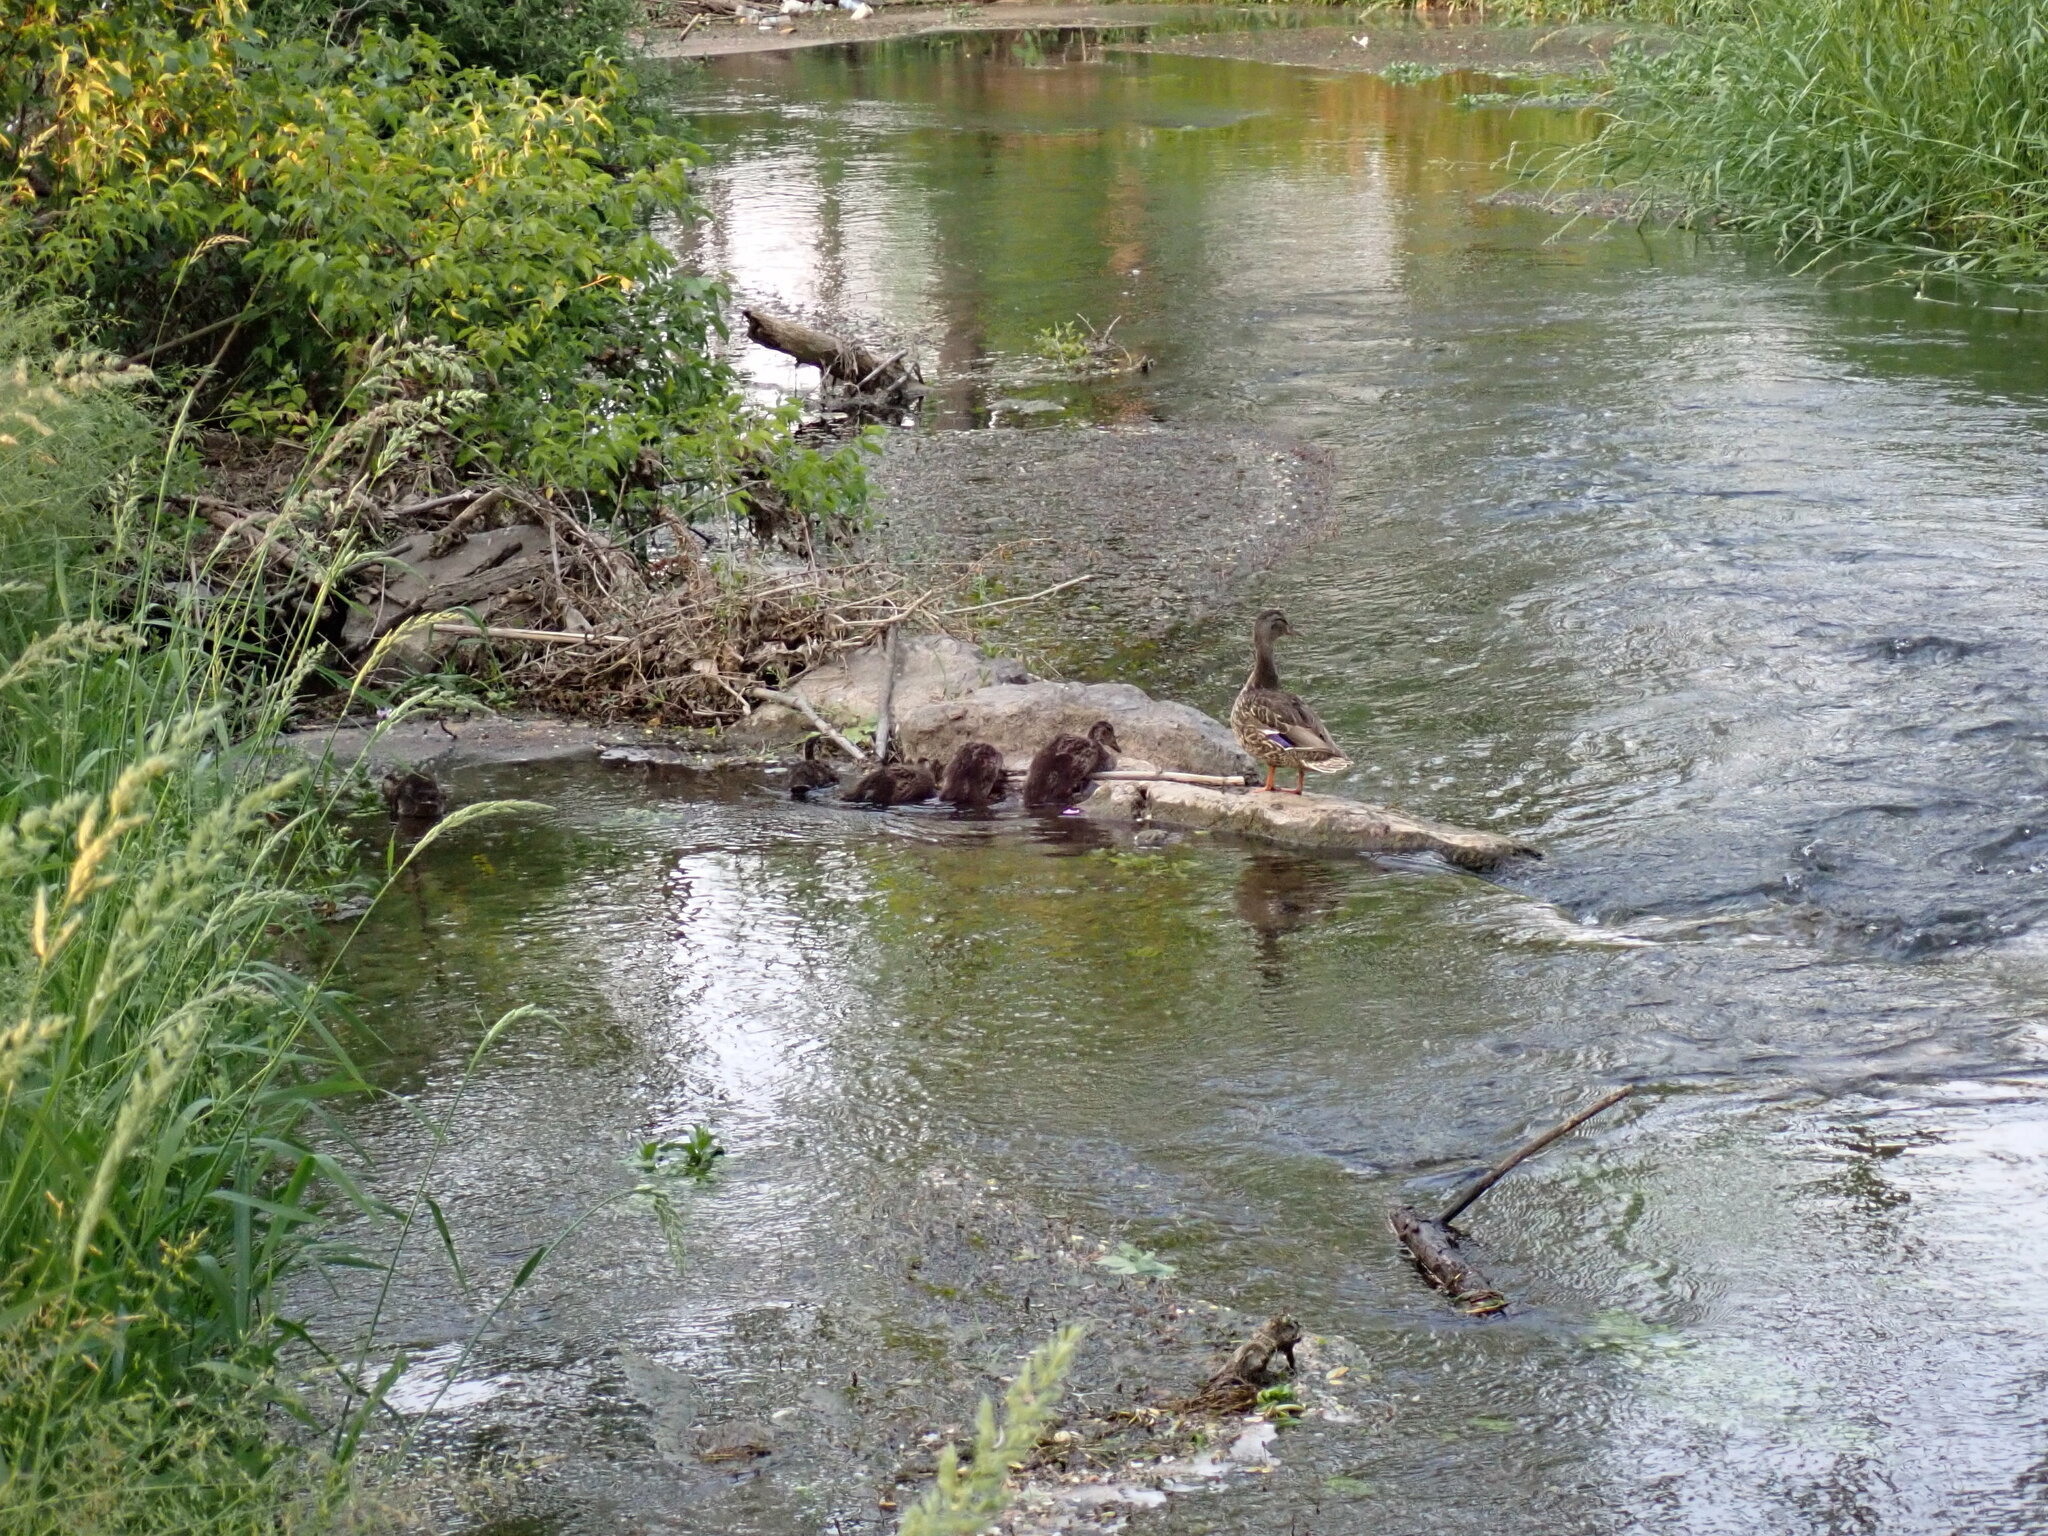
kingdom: Animalia
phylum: Chordata
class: Aves
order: Anseriformes
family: Anatidae
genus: Anas
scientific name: Anas platyrhynchos
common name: Mallard
